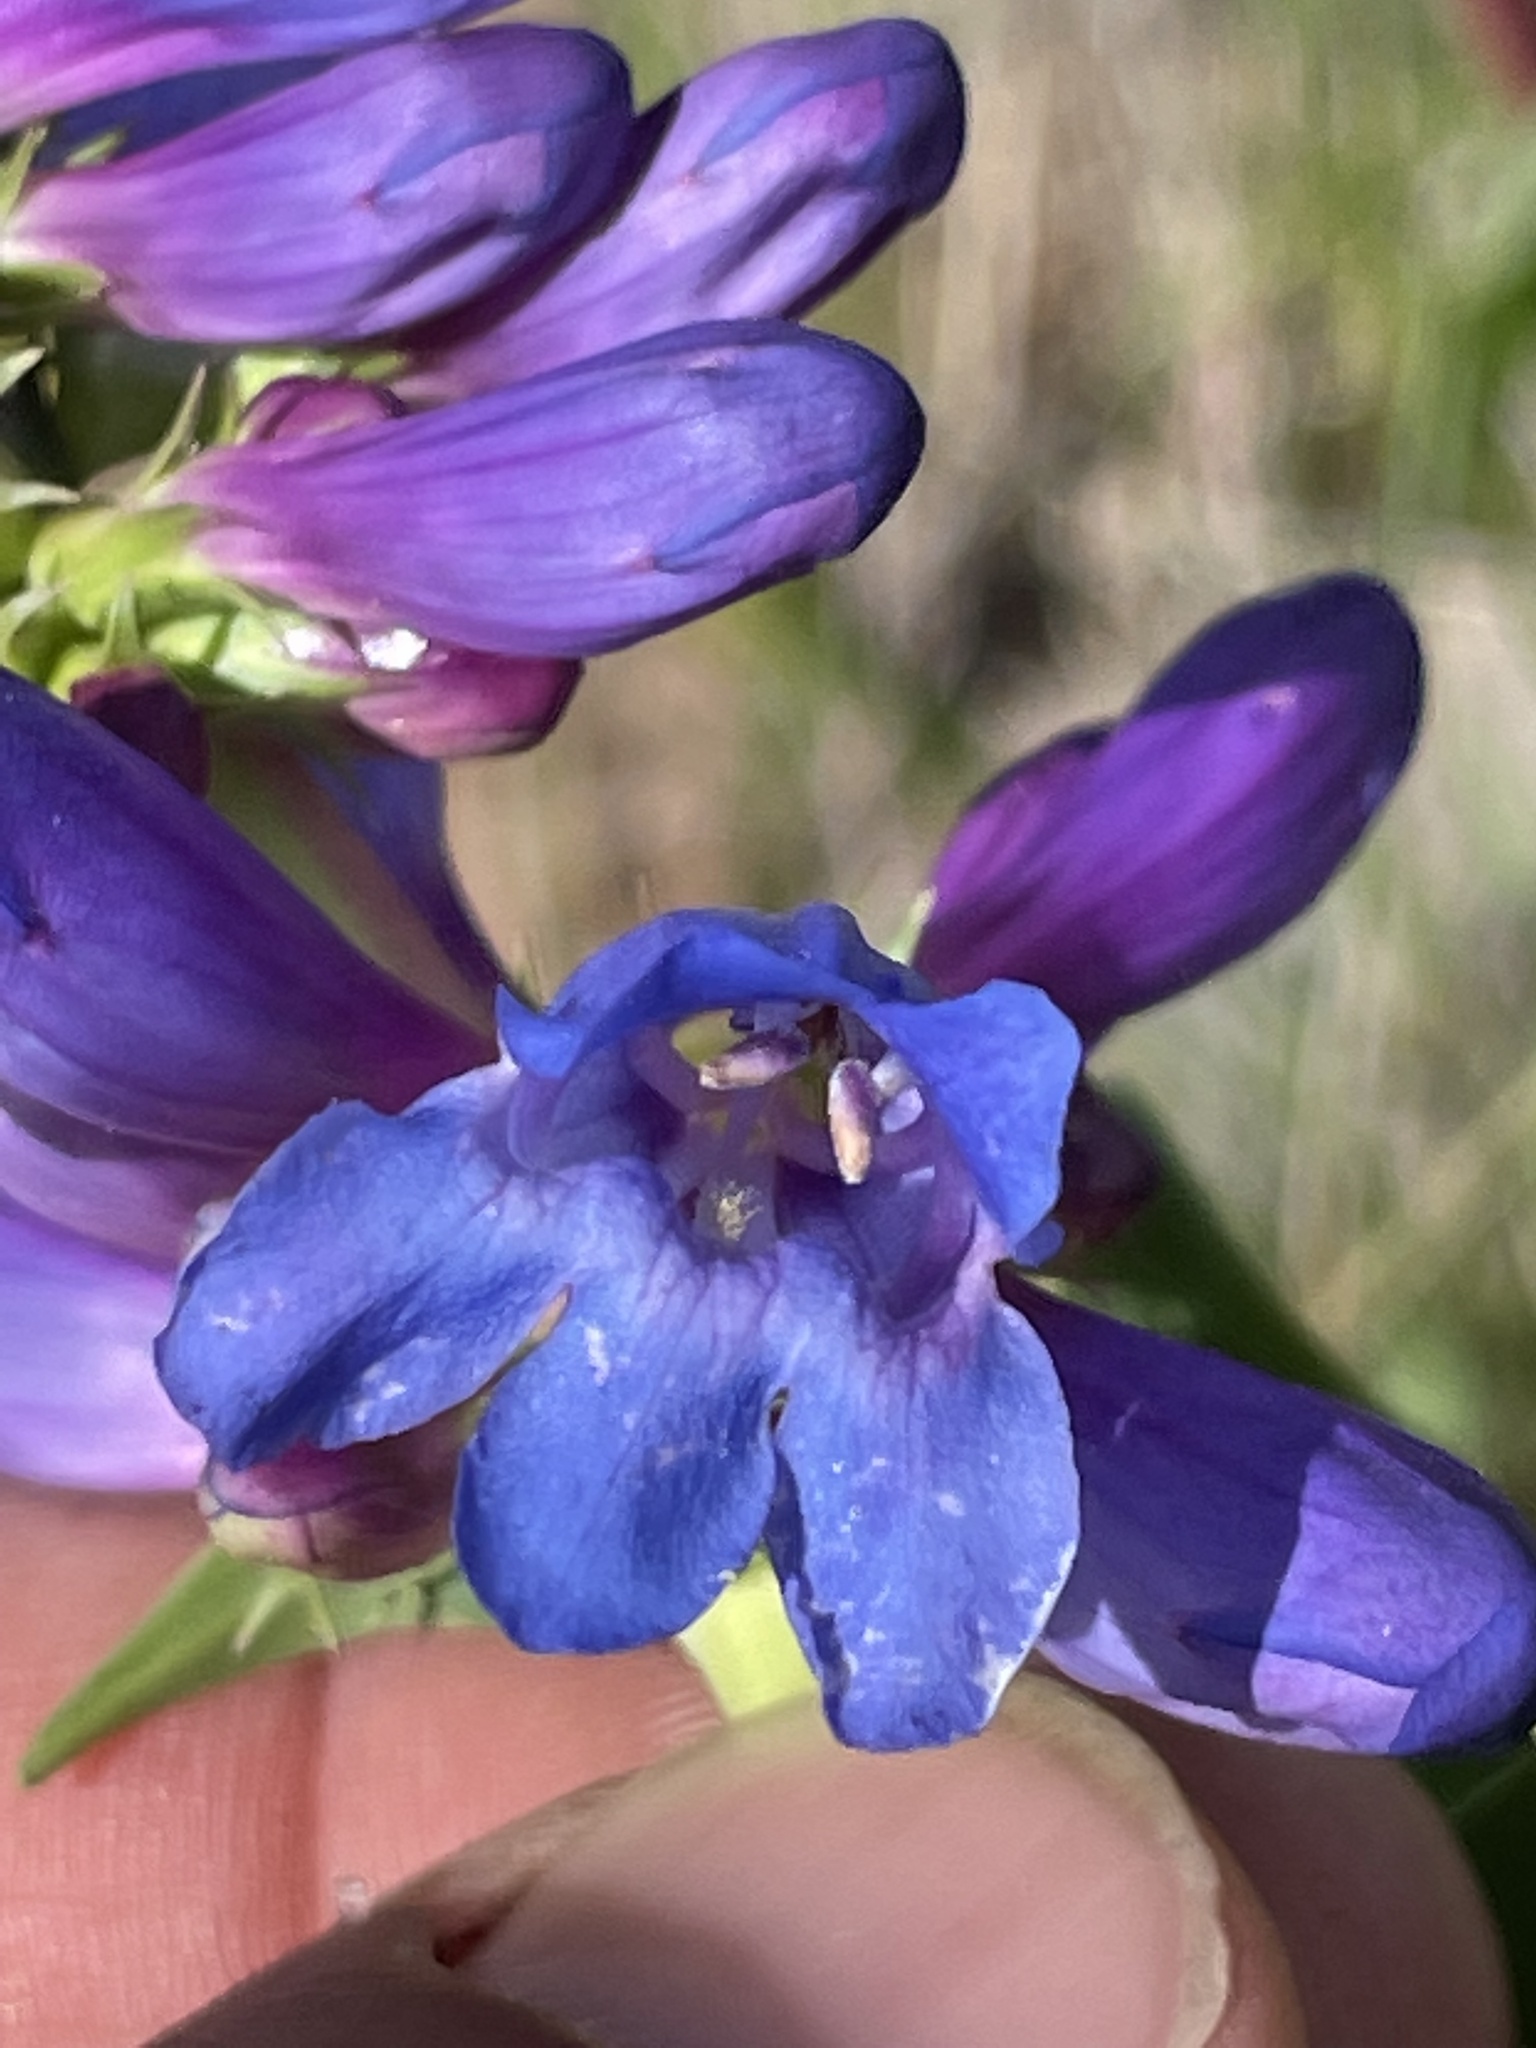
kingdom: Plantae
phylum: Tracheophyta
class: Magnoliopsida
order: Lamiales
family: Plantaginaceae
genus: Penstemon
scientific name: Penstemon pennellianus
